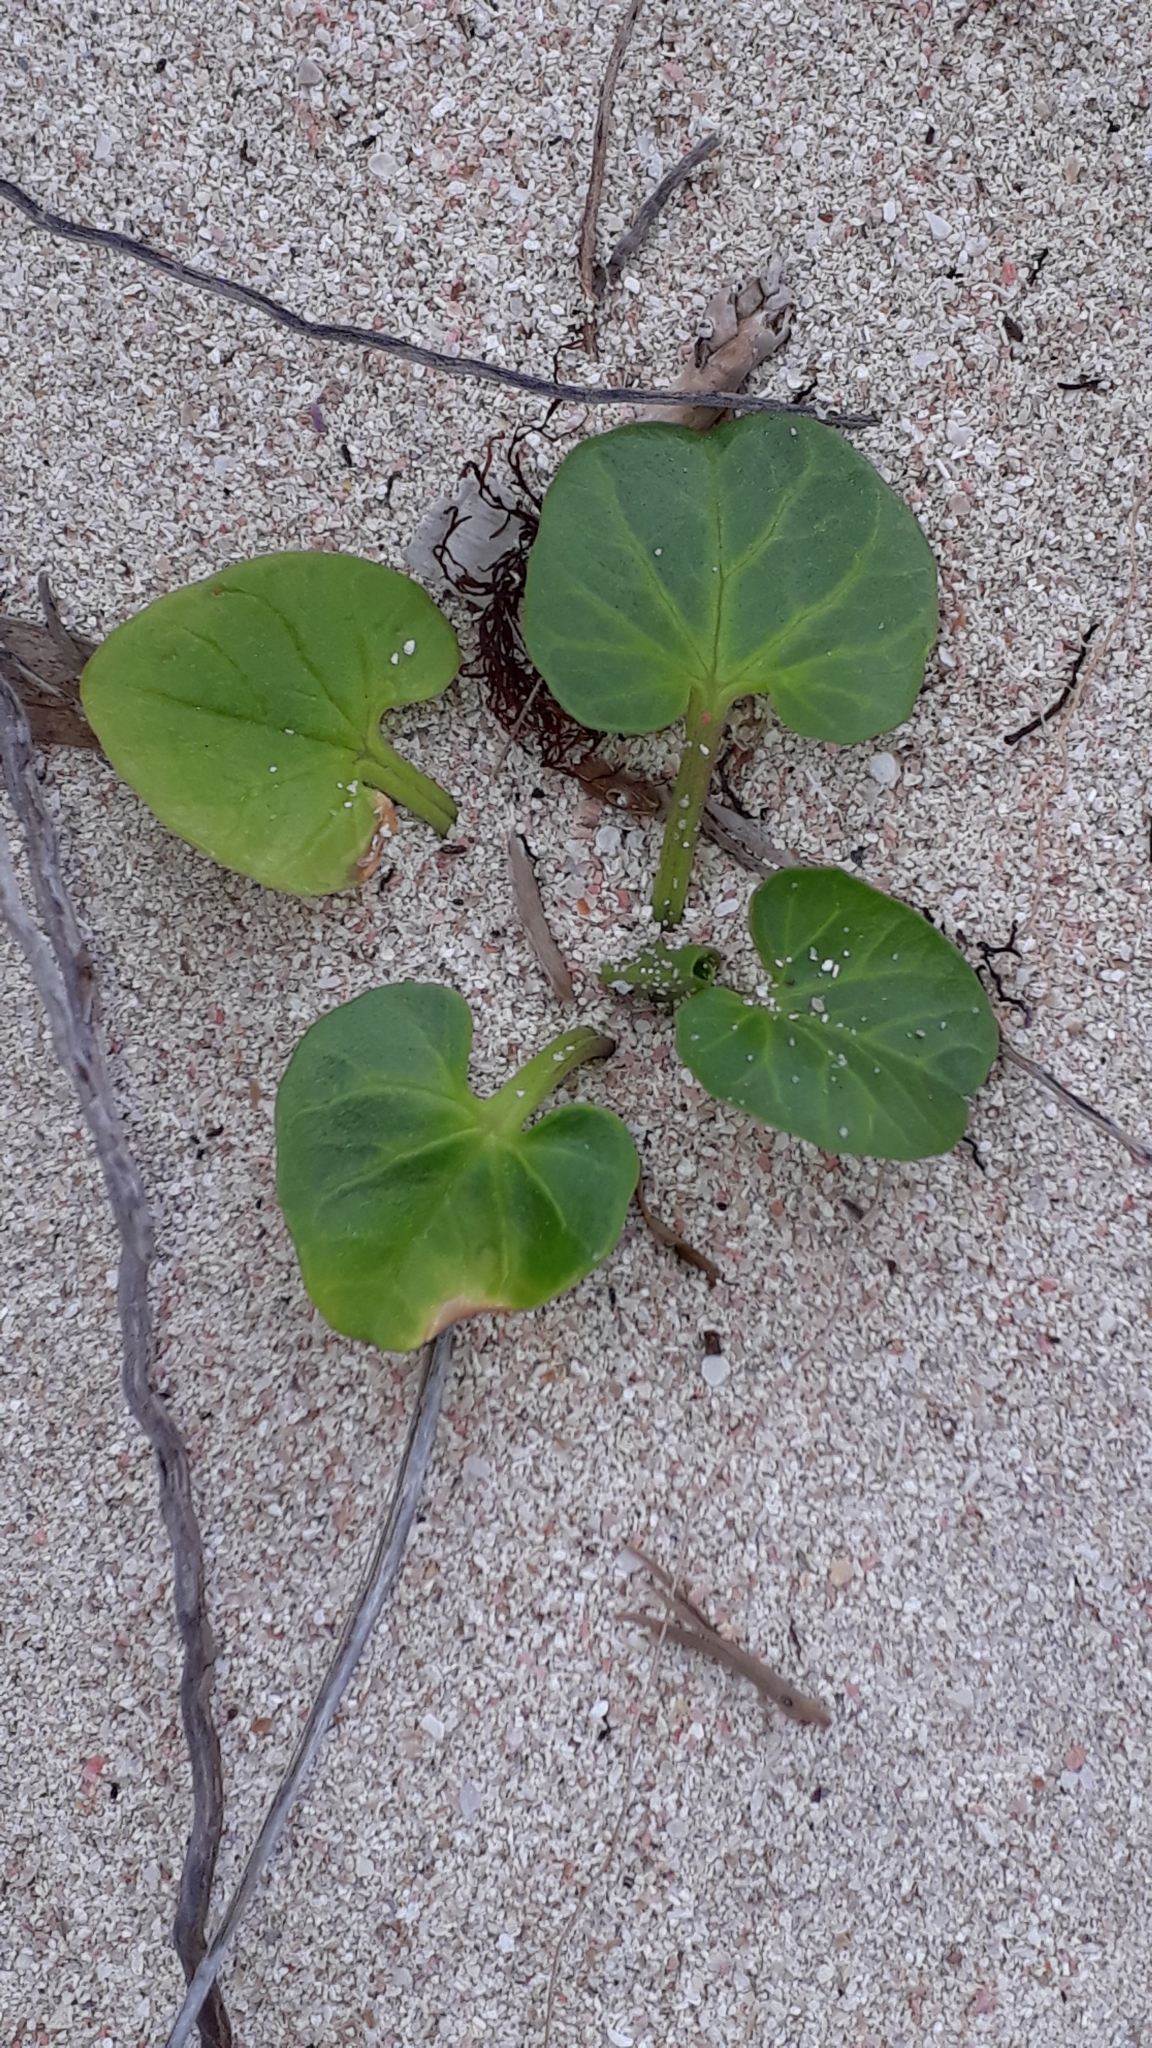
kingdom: Plantae
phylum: Tracheophyta
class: Magnoliopsida
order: Solanales
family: Convolvulaceae
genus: Calystegia
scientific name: Calystegia soldanella
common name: Sea bindweed
